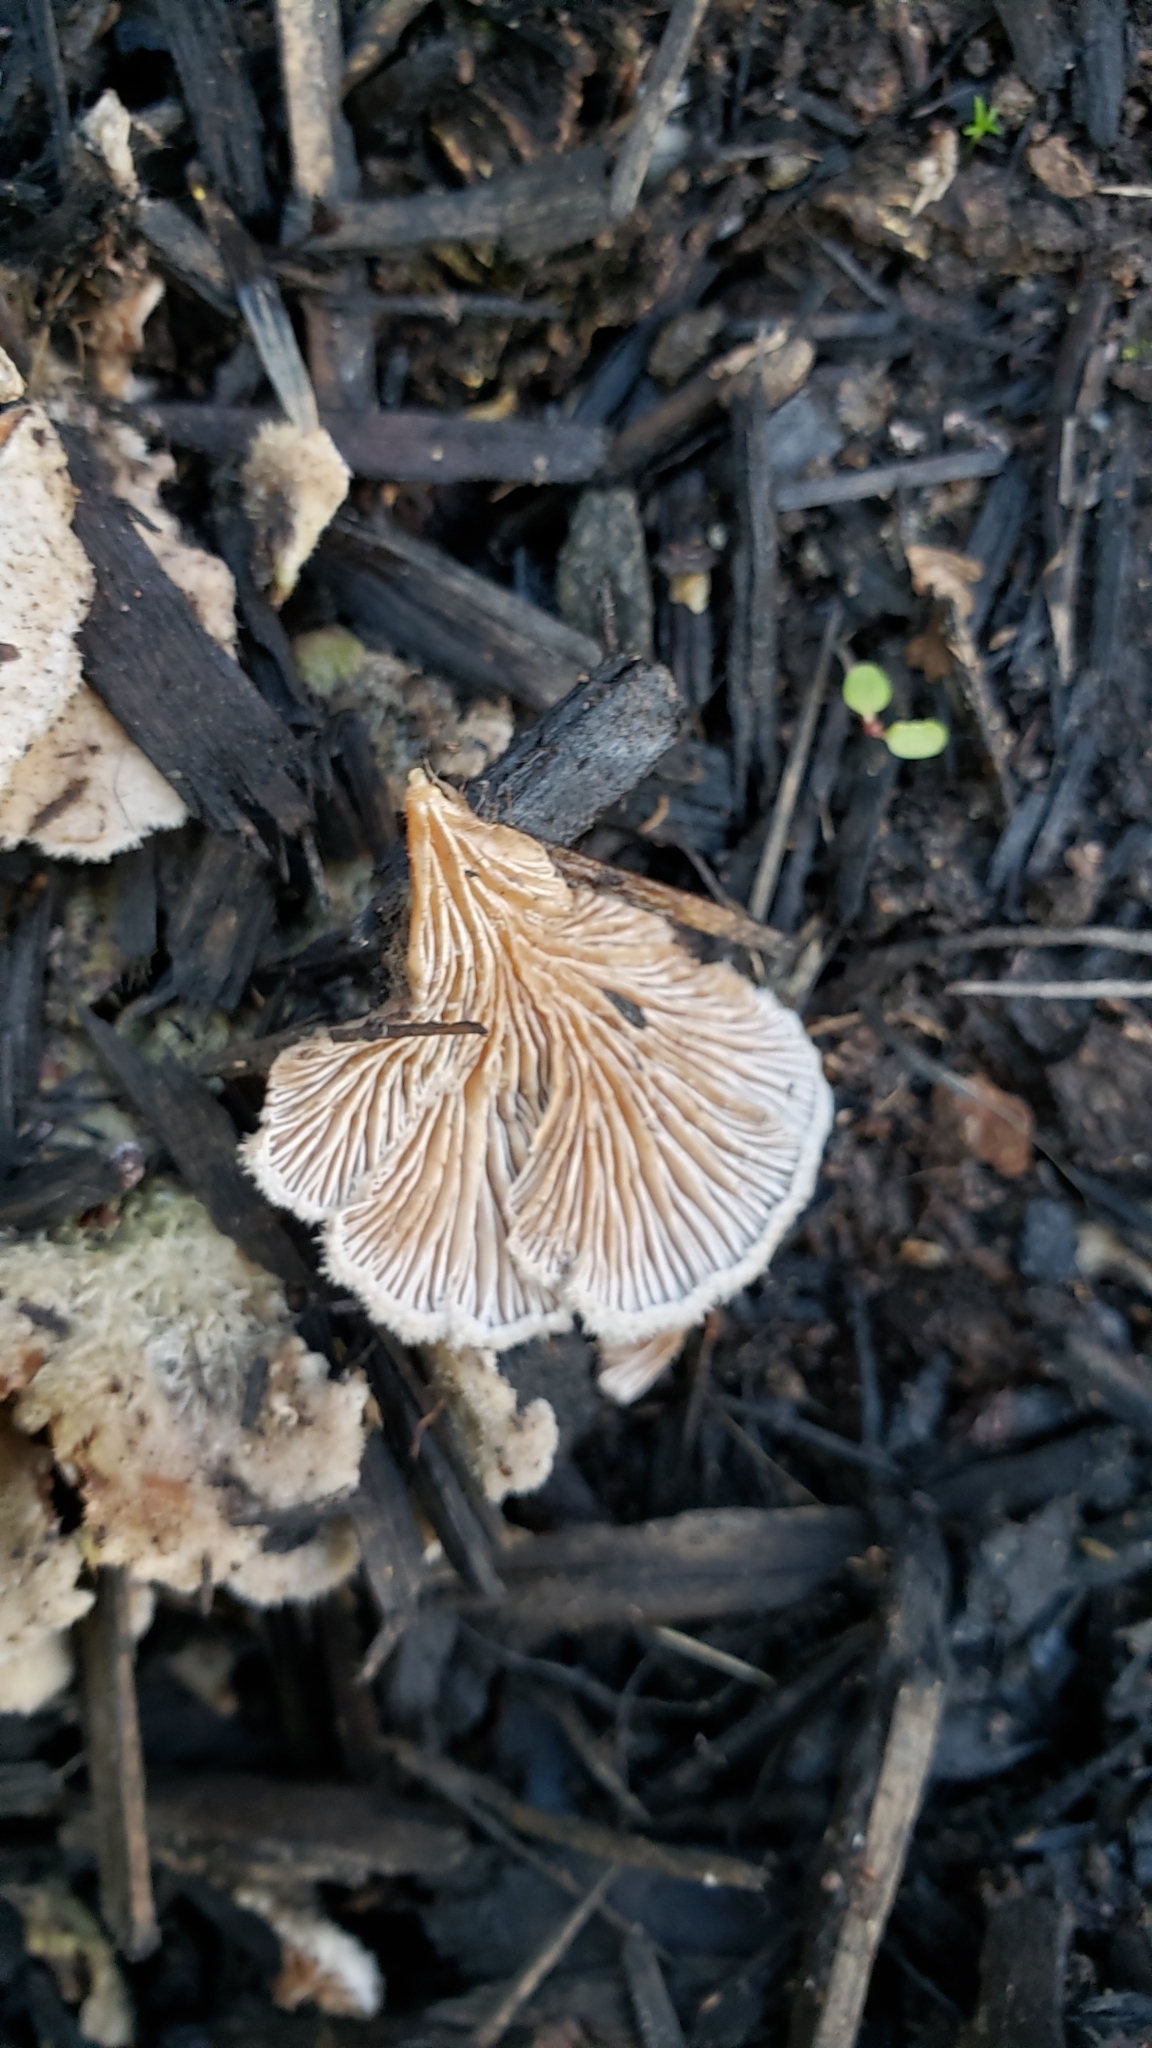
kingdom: Fungi
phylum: Basidiomycota
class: Agaricomycetes
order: Agaricales
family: Schizophyllaceae
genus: Schizophyllum
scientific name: Schizophyllum commune
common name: Common porecrust
